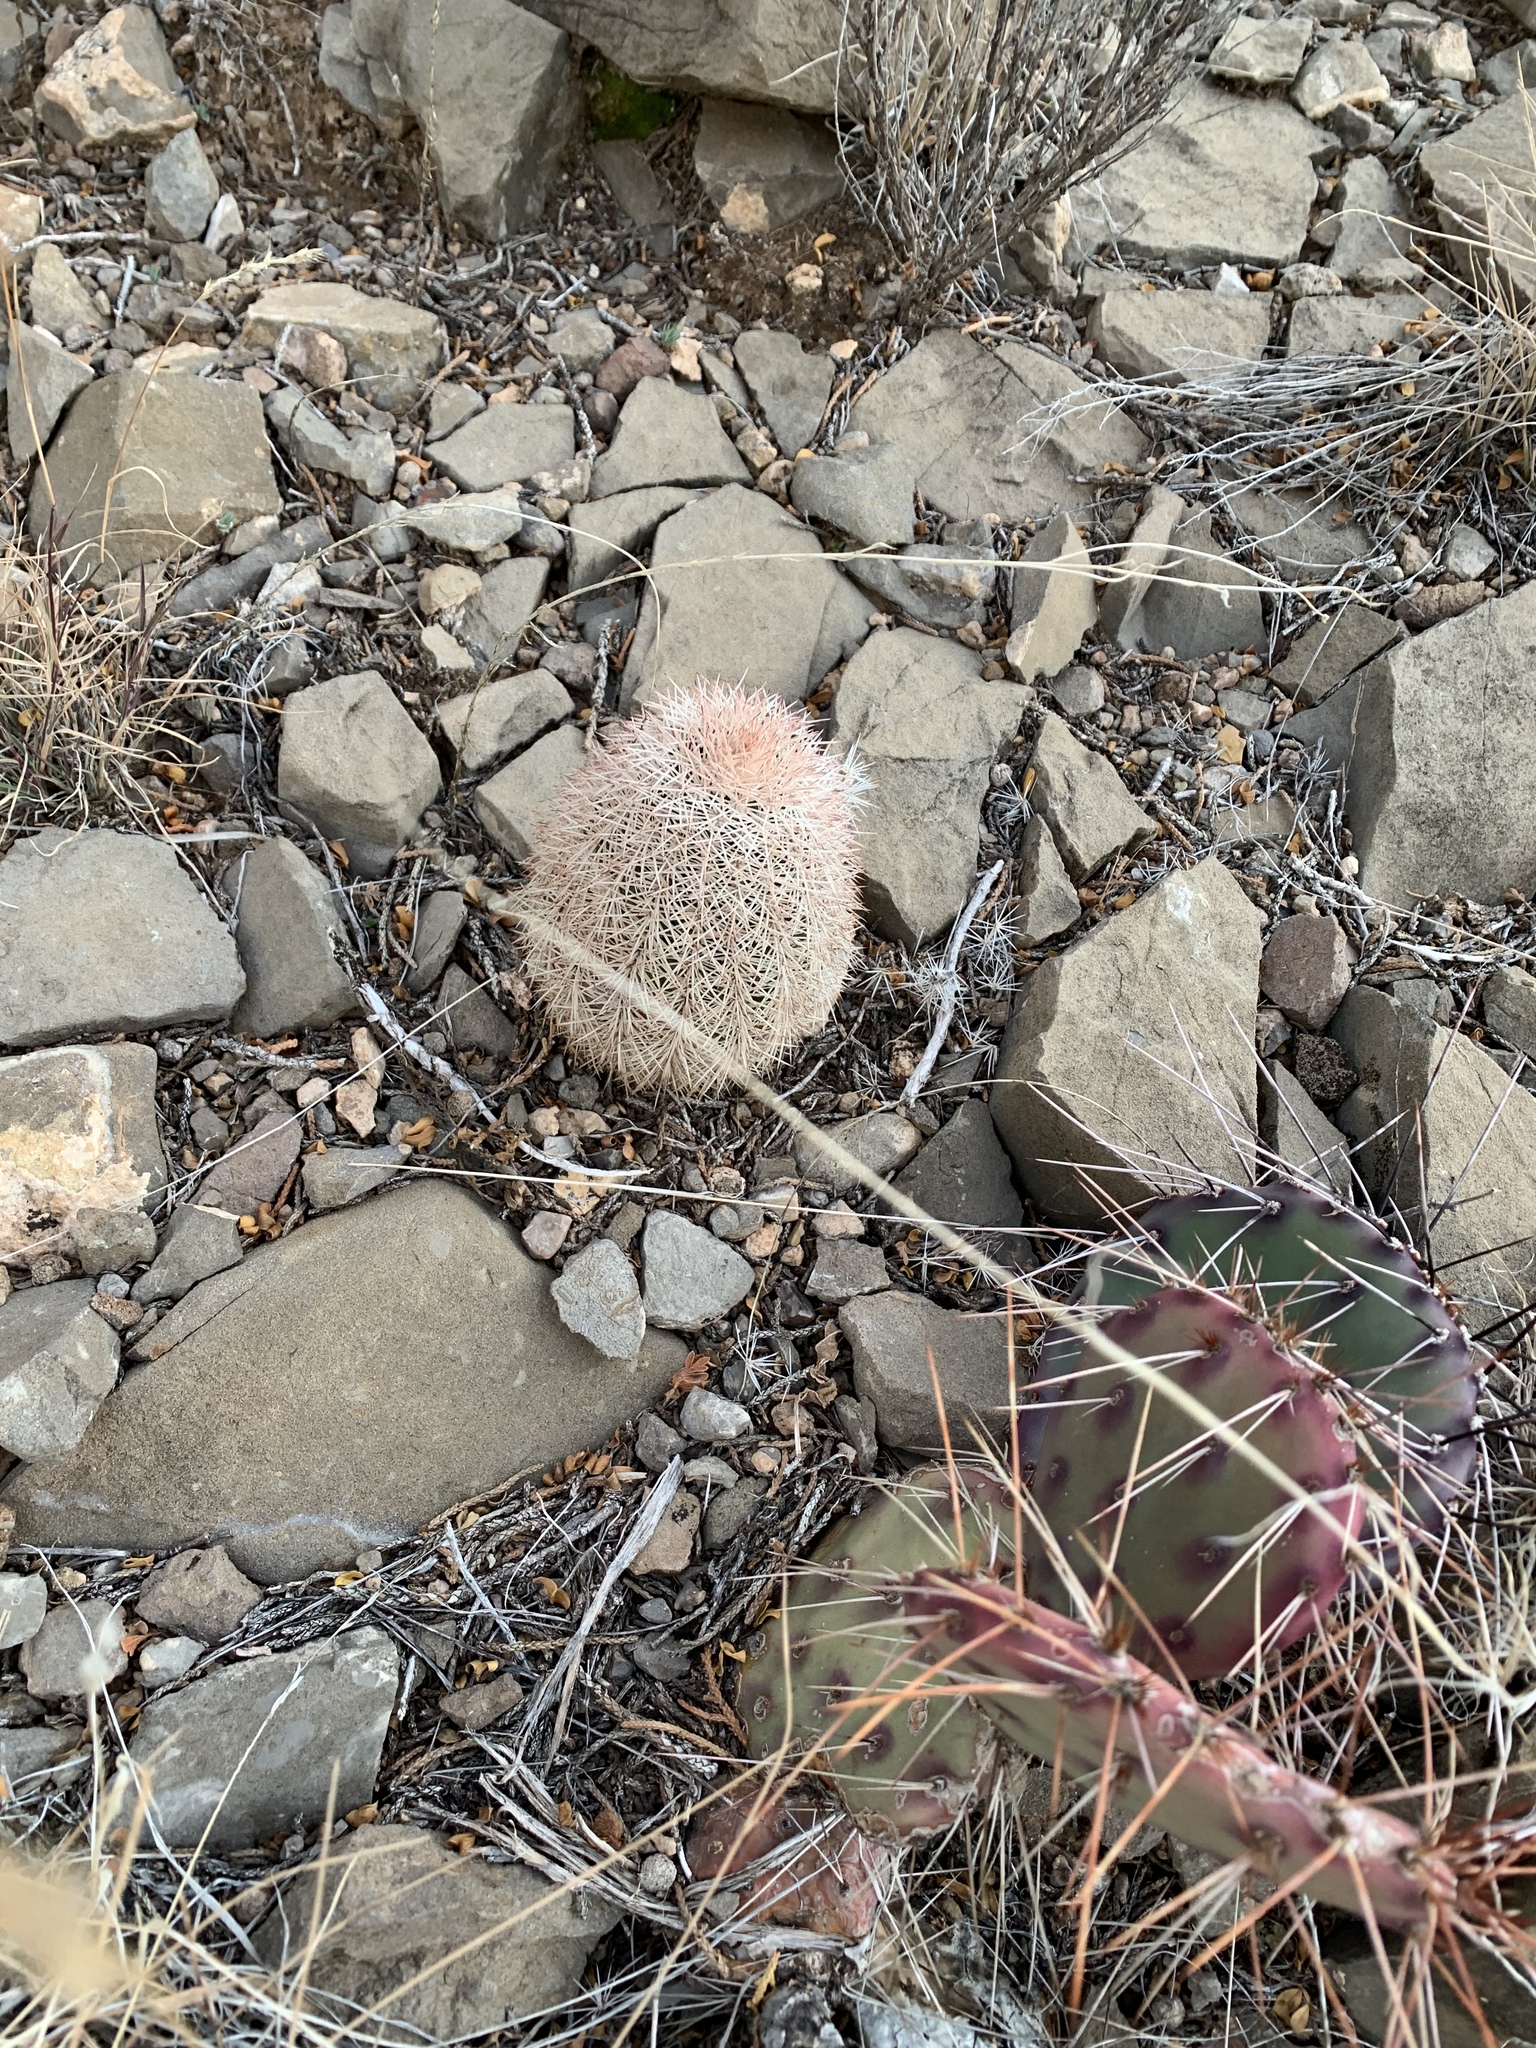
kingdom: Plantae
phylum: Tracheophyta
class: Magnoliopsida
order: Caryophyllales
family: Cactaceae
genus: Echinocereus
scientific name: Echinocereus dasyacanthus
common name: Spiny hedgehog cactus
